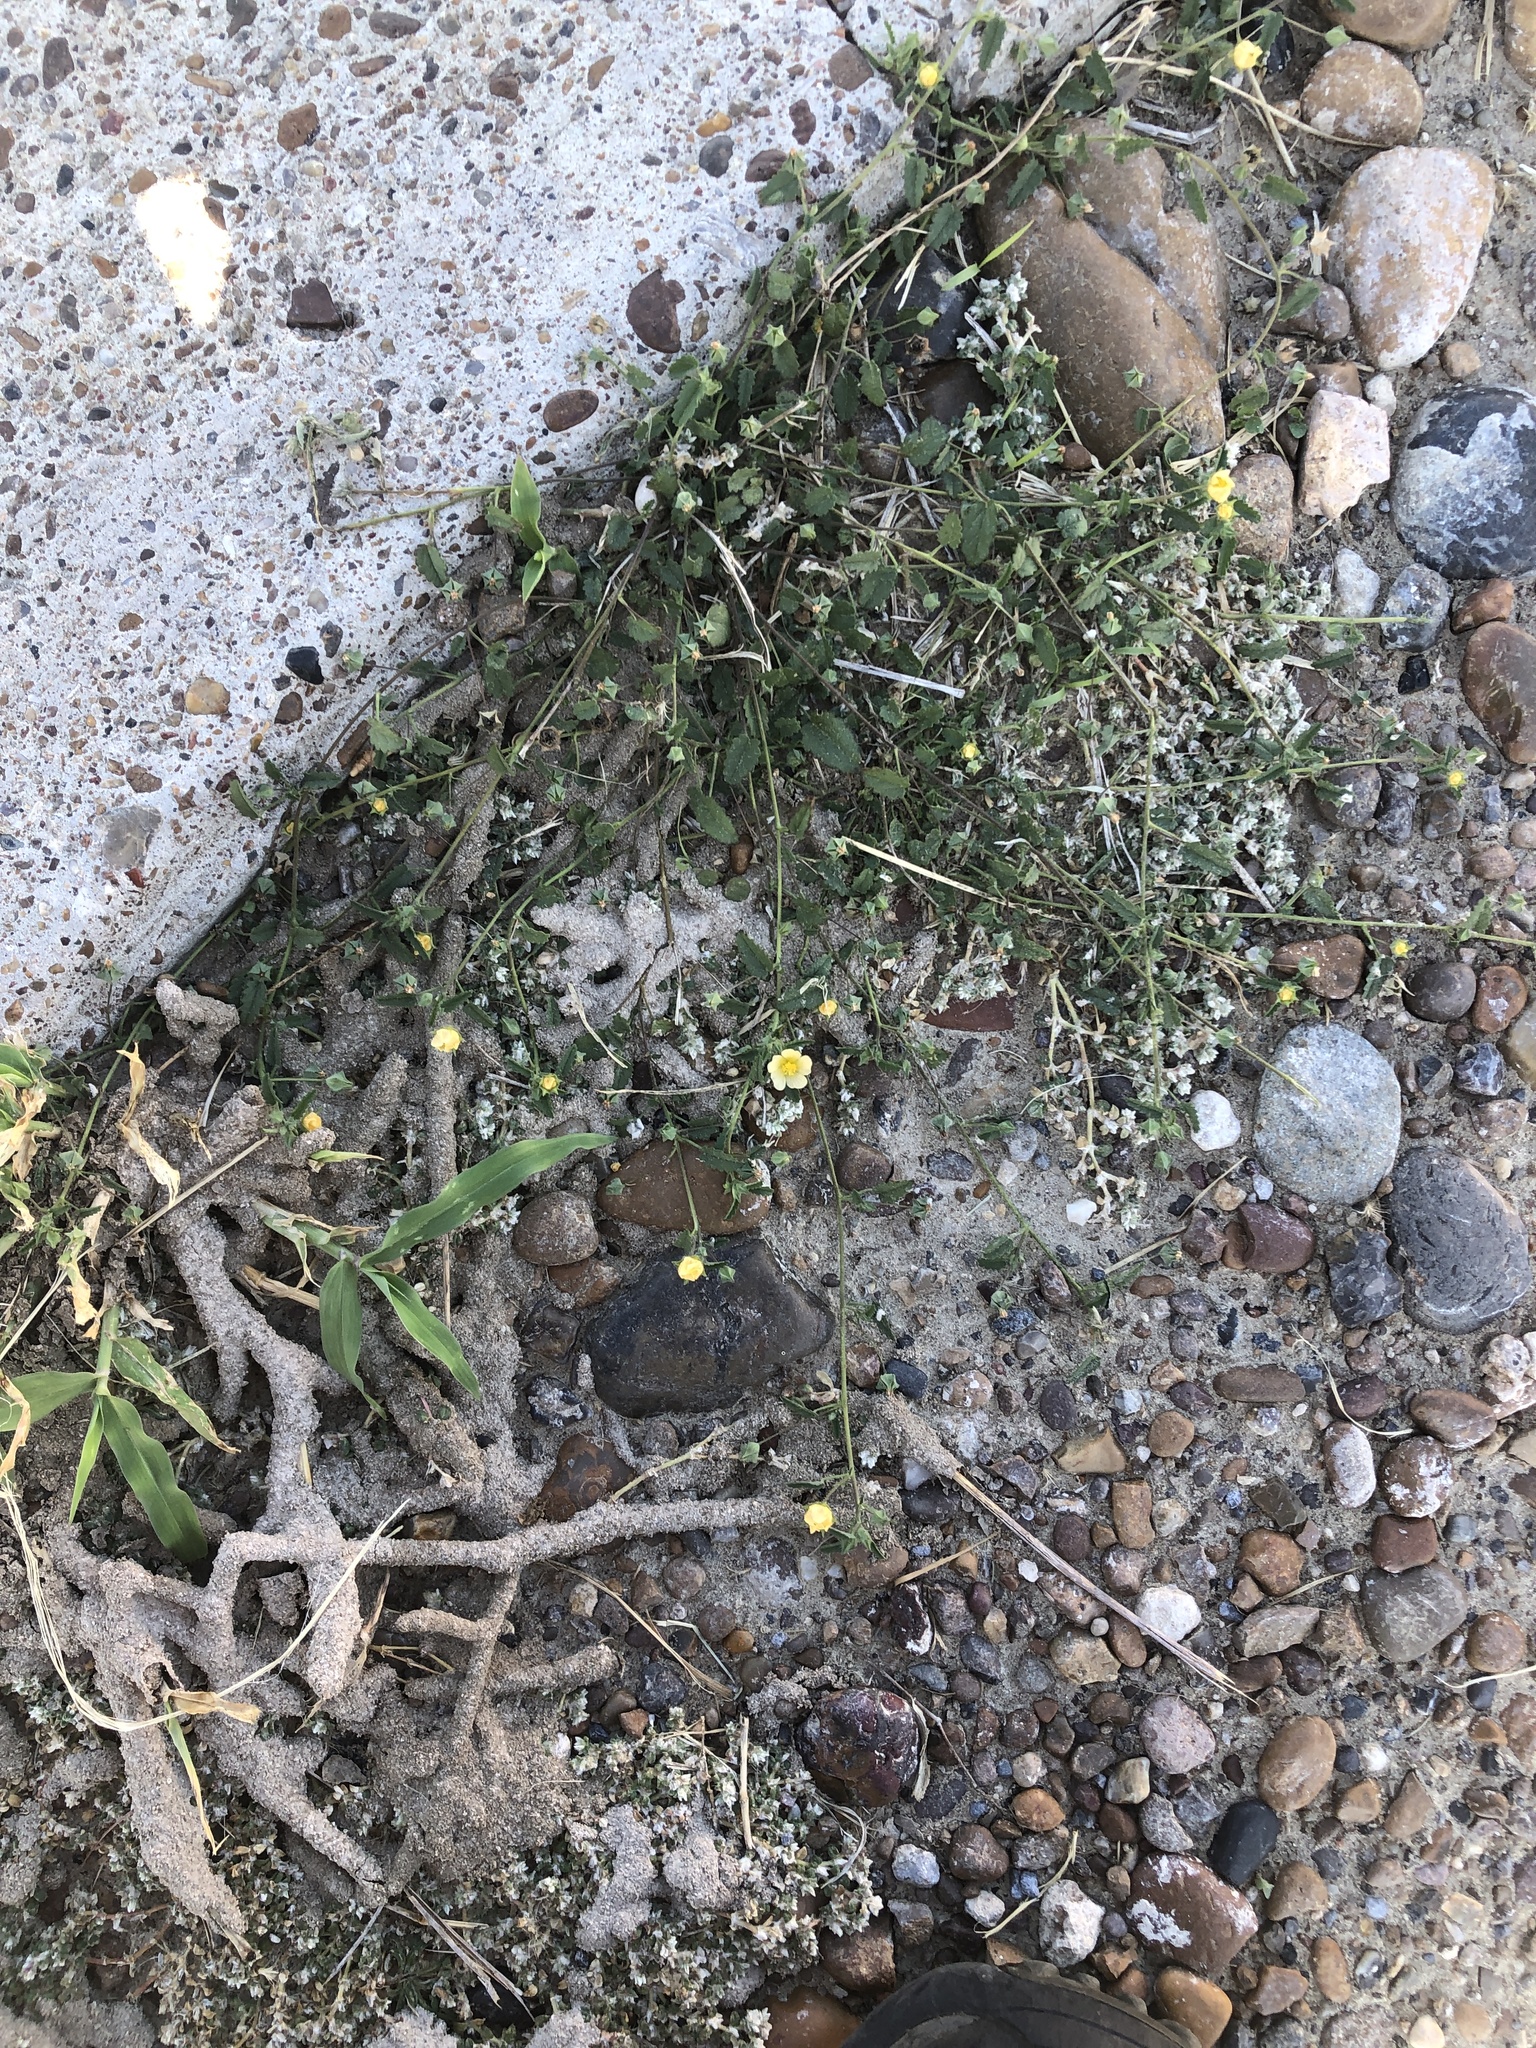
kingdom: Plantae
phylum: Tracheophyta
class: Magnoliopsida
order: Malvales
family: Malvaceae
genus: Sida
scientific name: Sida abutilifolia
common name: Spreading fanpetals
